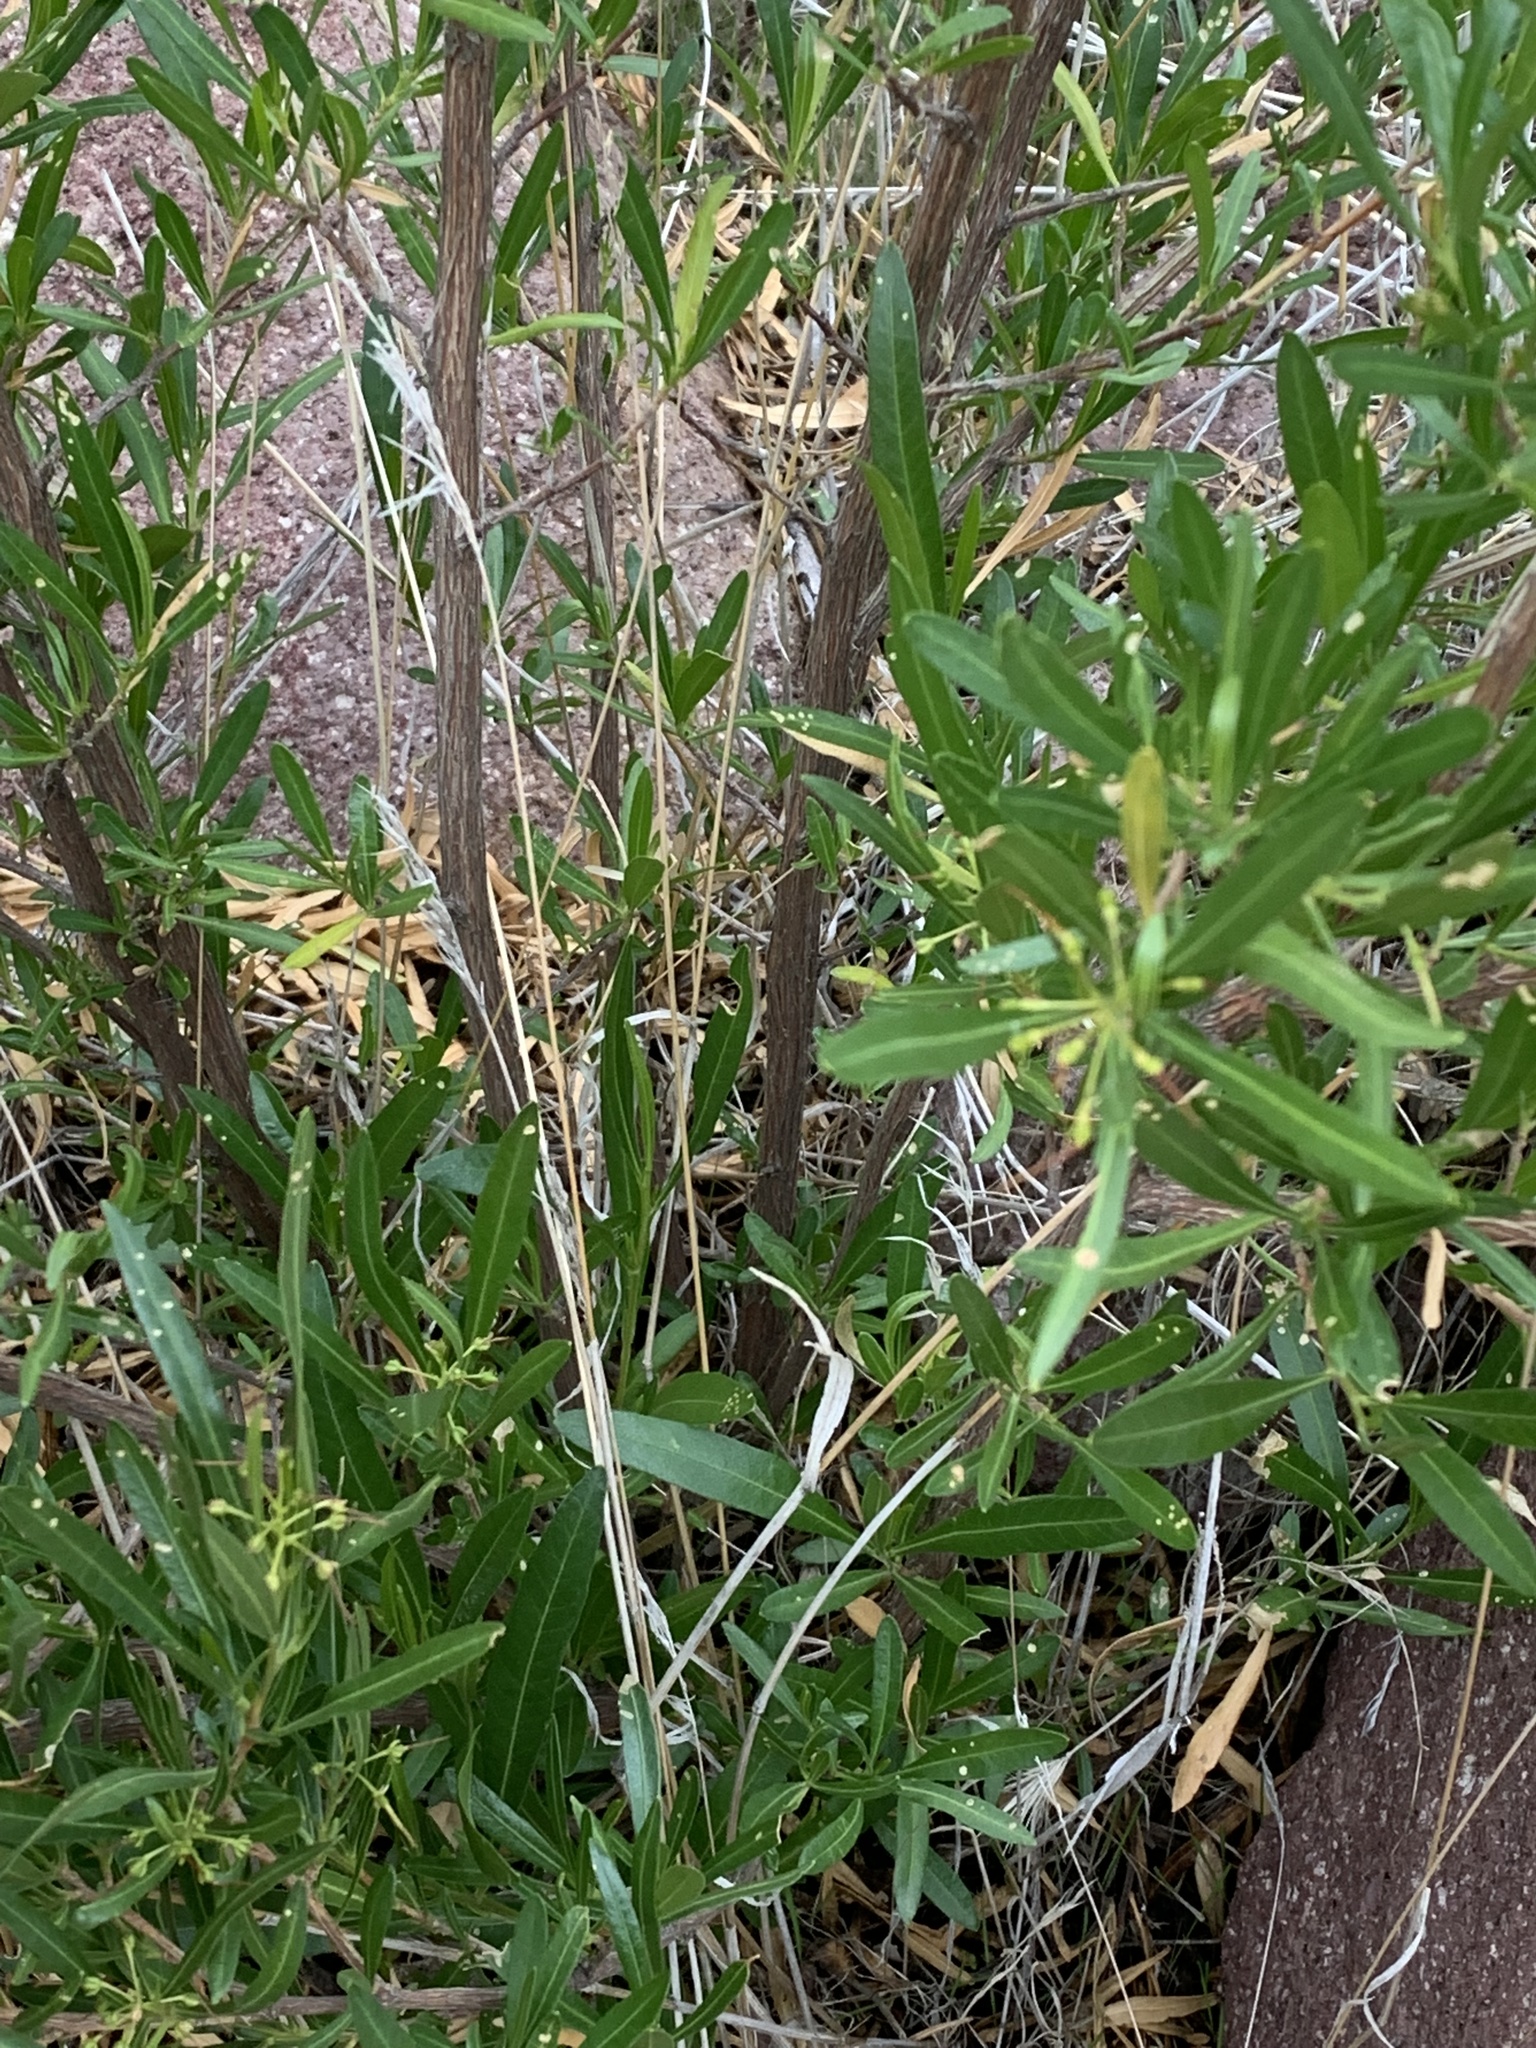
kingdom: Plantae
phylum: Tracheophyta
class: Magnoliopsida
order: Sapindales
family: Sapindaceae
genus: Dodonaea
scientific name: Dodonaea viscosa
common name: Hopbush
